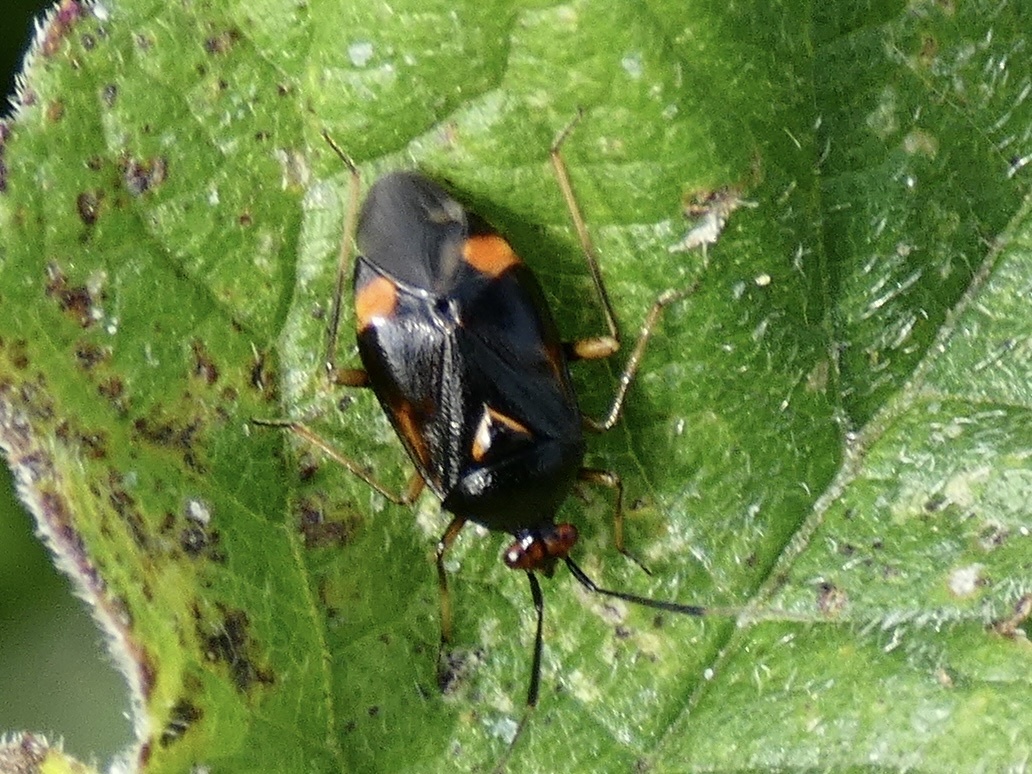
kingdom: Animalia
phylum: Arthropoda
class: Insecta
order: Hemiptera
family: Miridae
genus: Deraeocoris
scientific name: Deraeocoris ruber
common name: Plant bug
